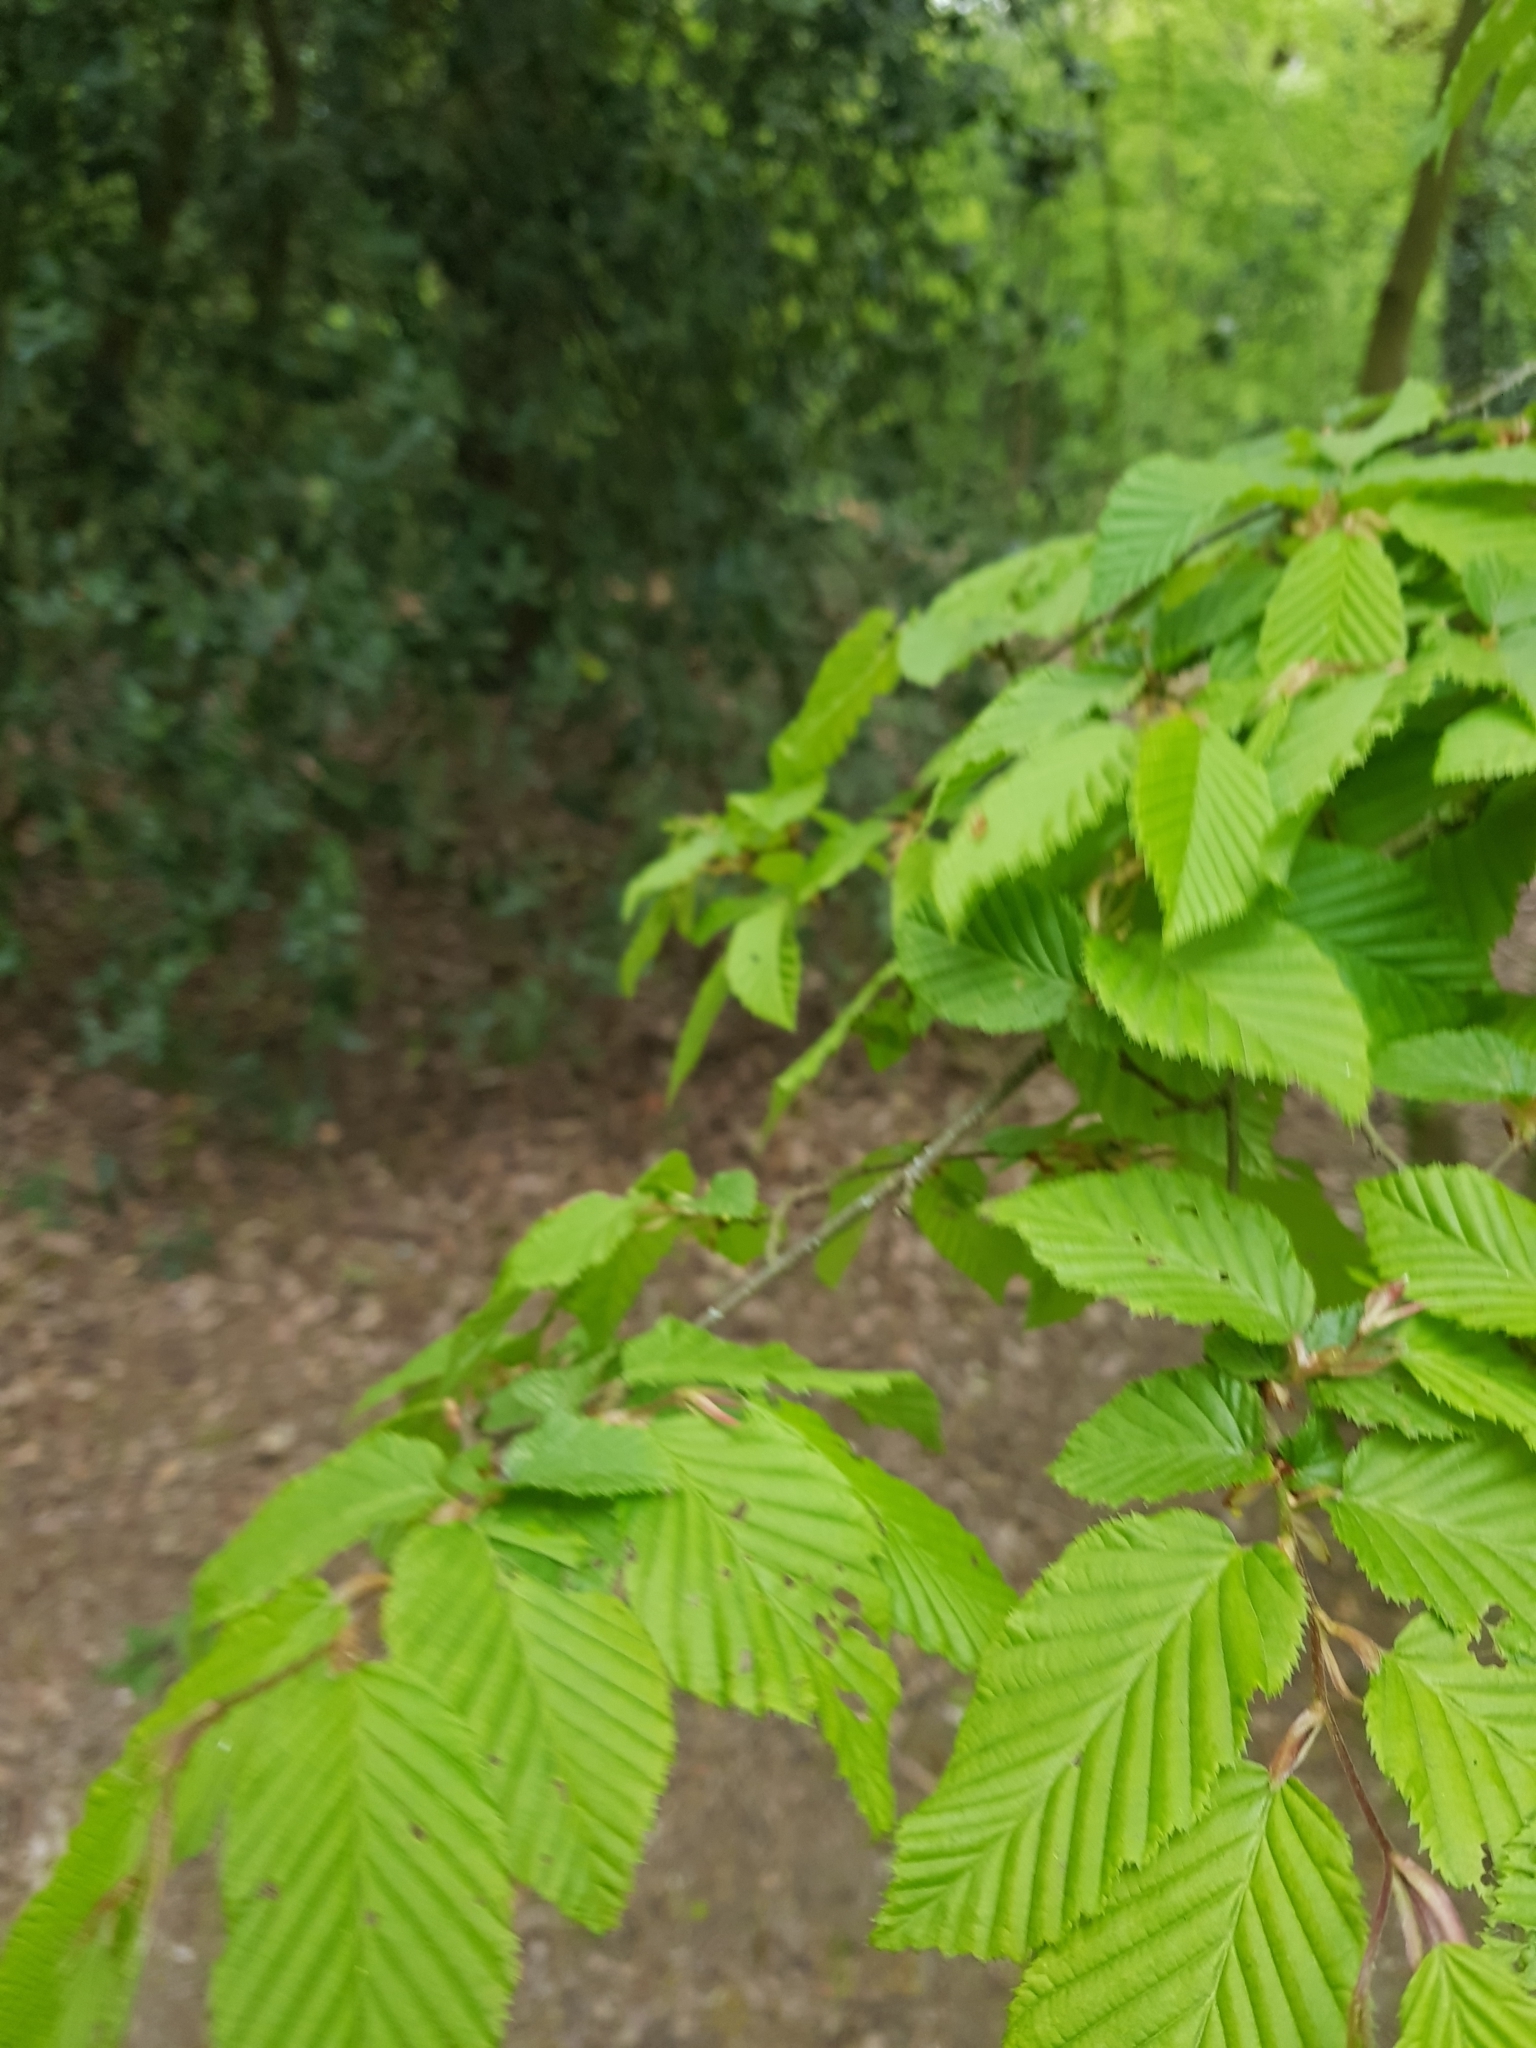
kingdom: Plantae
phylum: Tracheophyta
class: Magnoliopsida
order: Fagales
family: Betulaceae
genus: Carpinus
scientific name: Carpinus betulus
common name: Hornbeam
